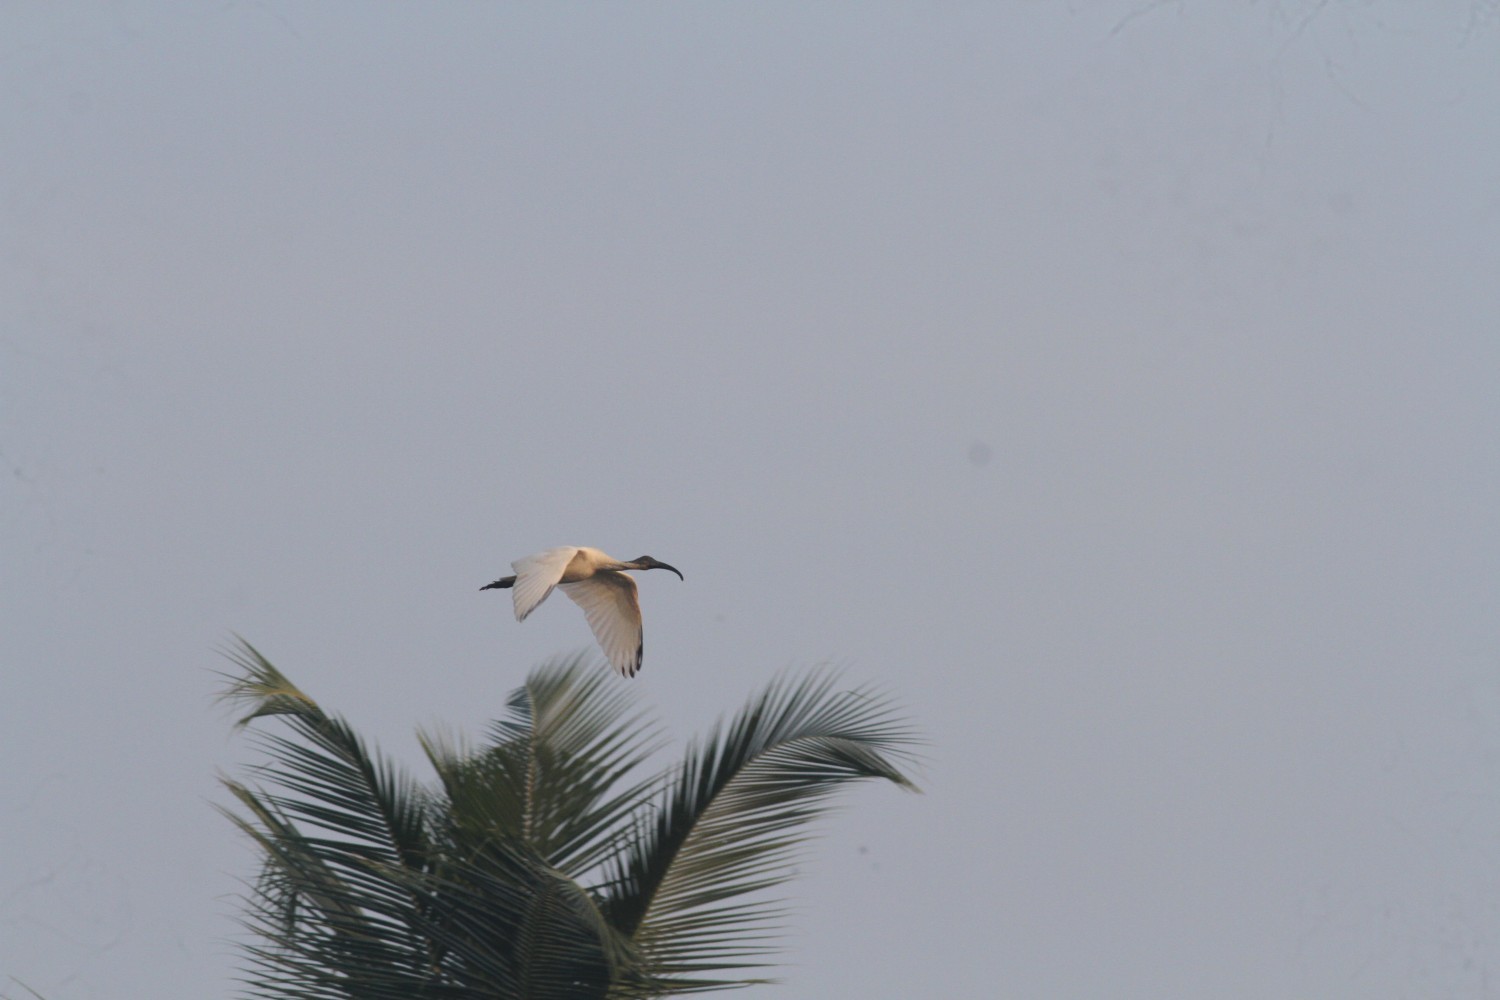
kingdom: Animalia
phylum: Chordata
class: Aves
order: Pelecaniformes
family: Threskiornithidae
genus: Threskiornis
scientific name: Threskiornis melanocephalus
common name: Black-headed ibis
